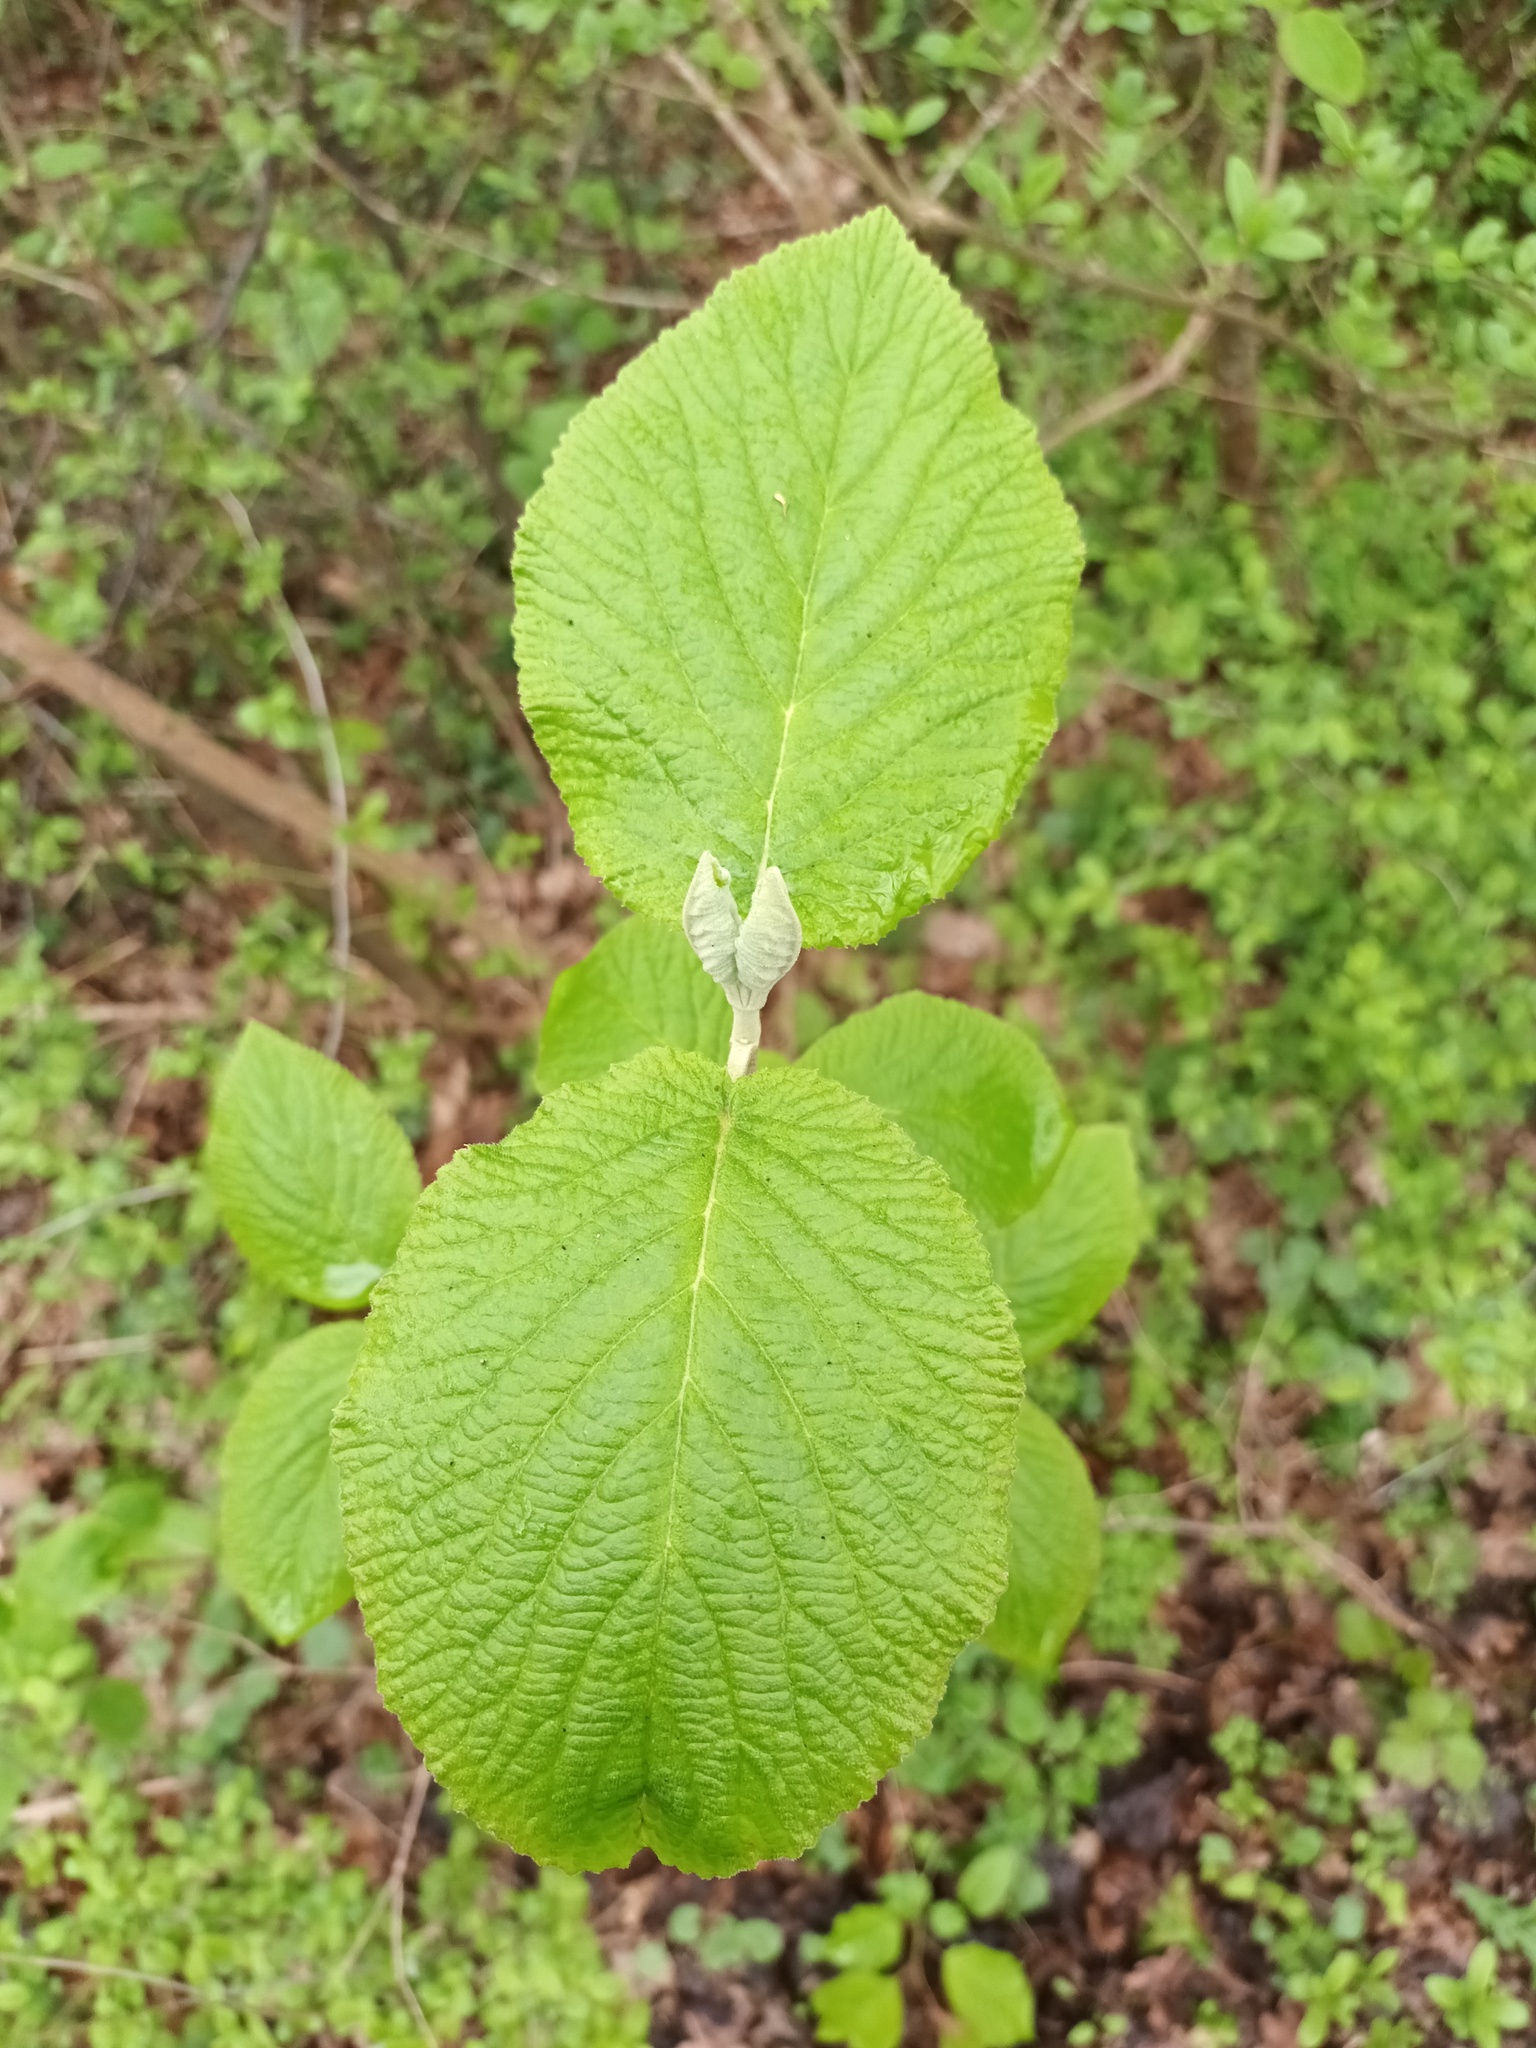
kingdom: Plantae
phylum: Tracheophyta
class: Magnoliopsida
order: Dipsacales
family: Viburnaceae
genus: Viburnum
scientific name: Viburnum lantana
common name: Wayfaring tree
